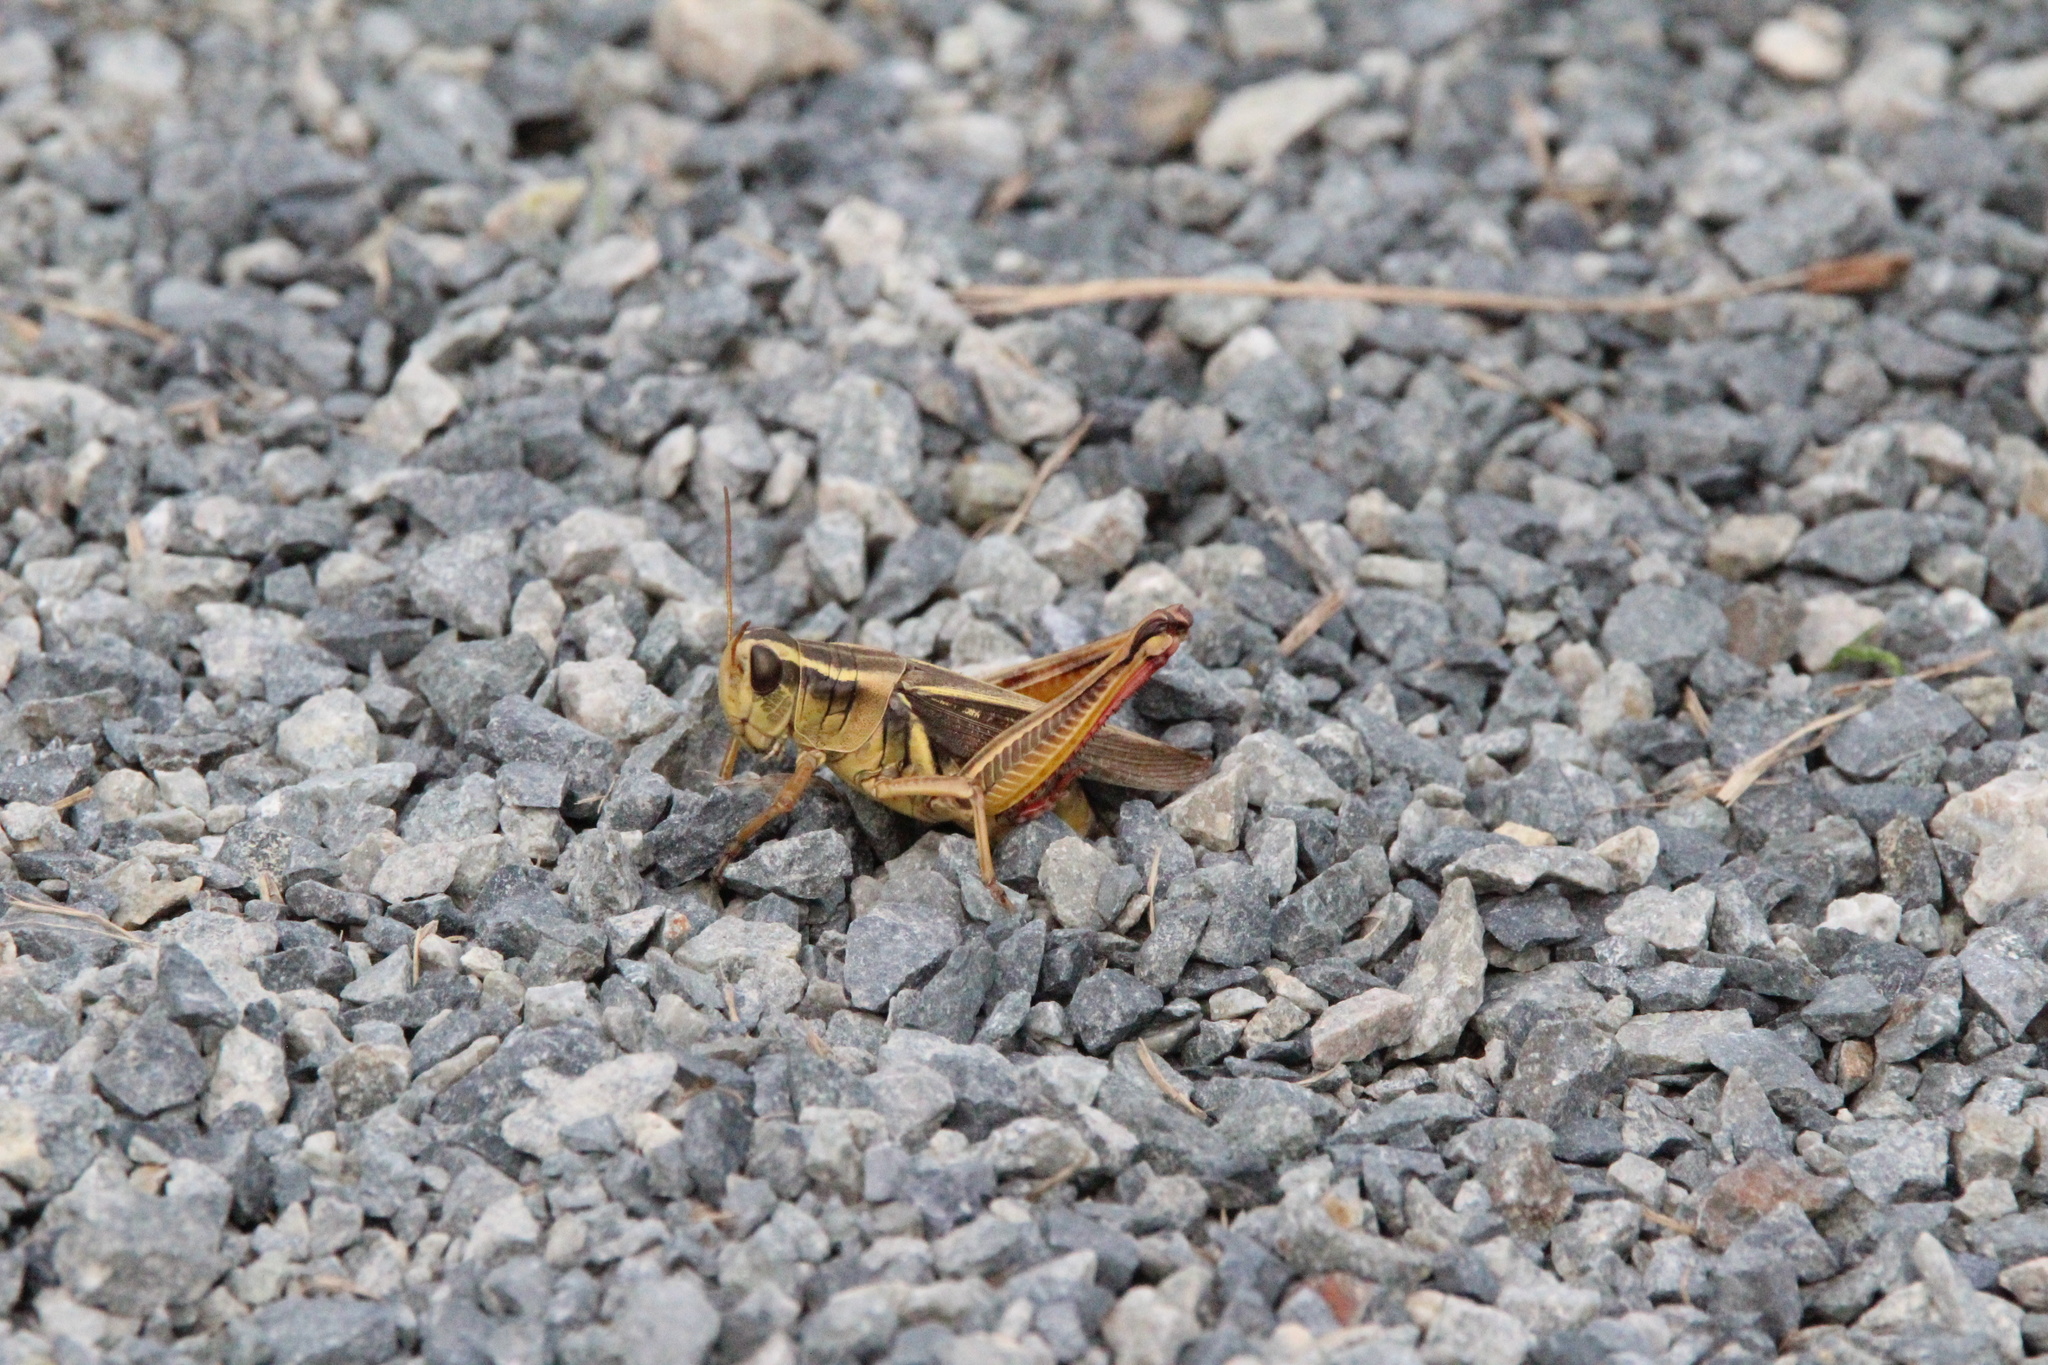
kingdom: Animalia
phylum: Arthropoda
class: Insecta
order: Orthoptera
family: Acrididae
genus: Melanoplus
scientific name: Melanoplus bivittatus
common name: Two-striped grasshopper
